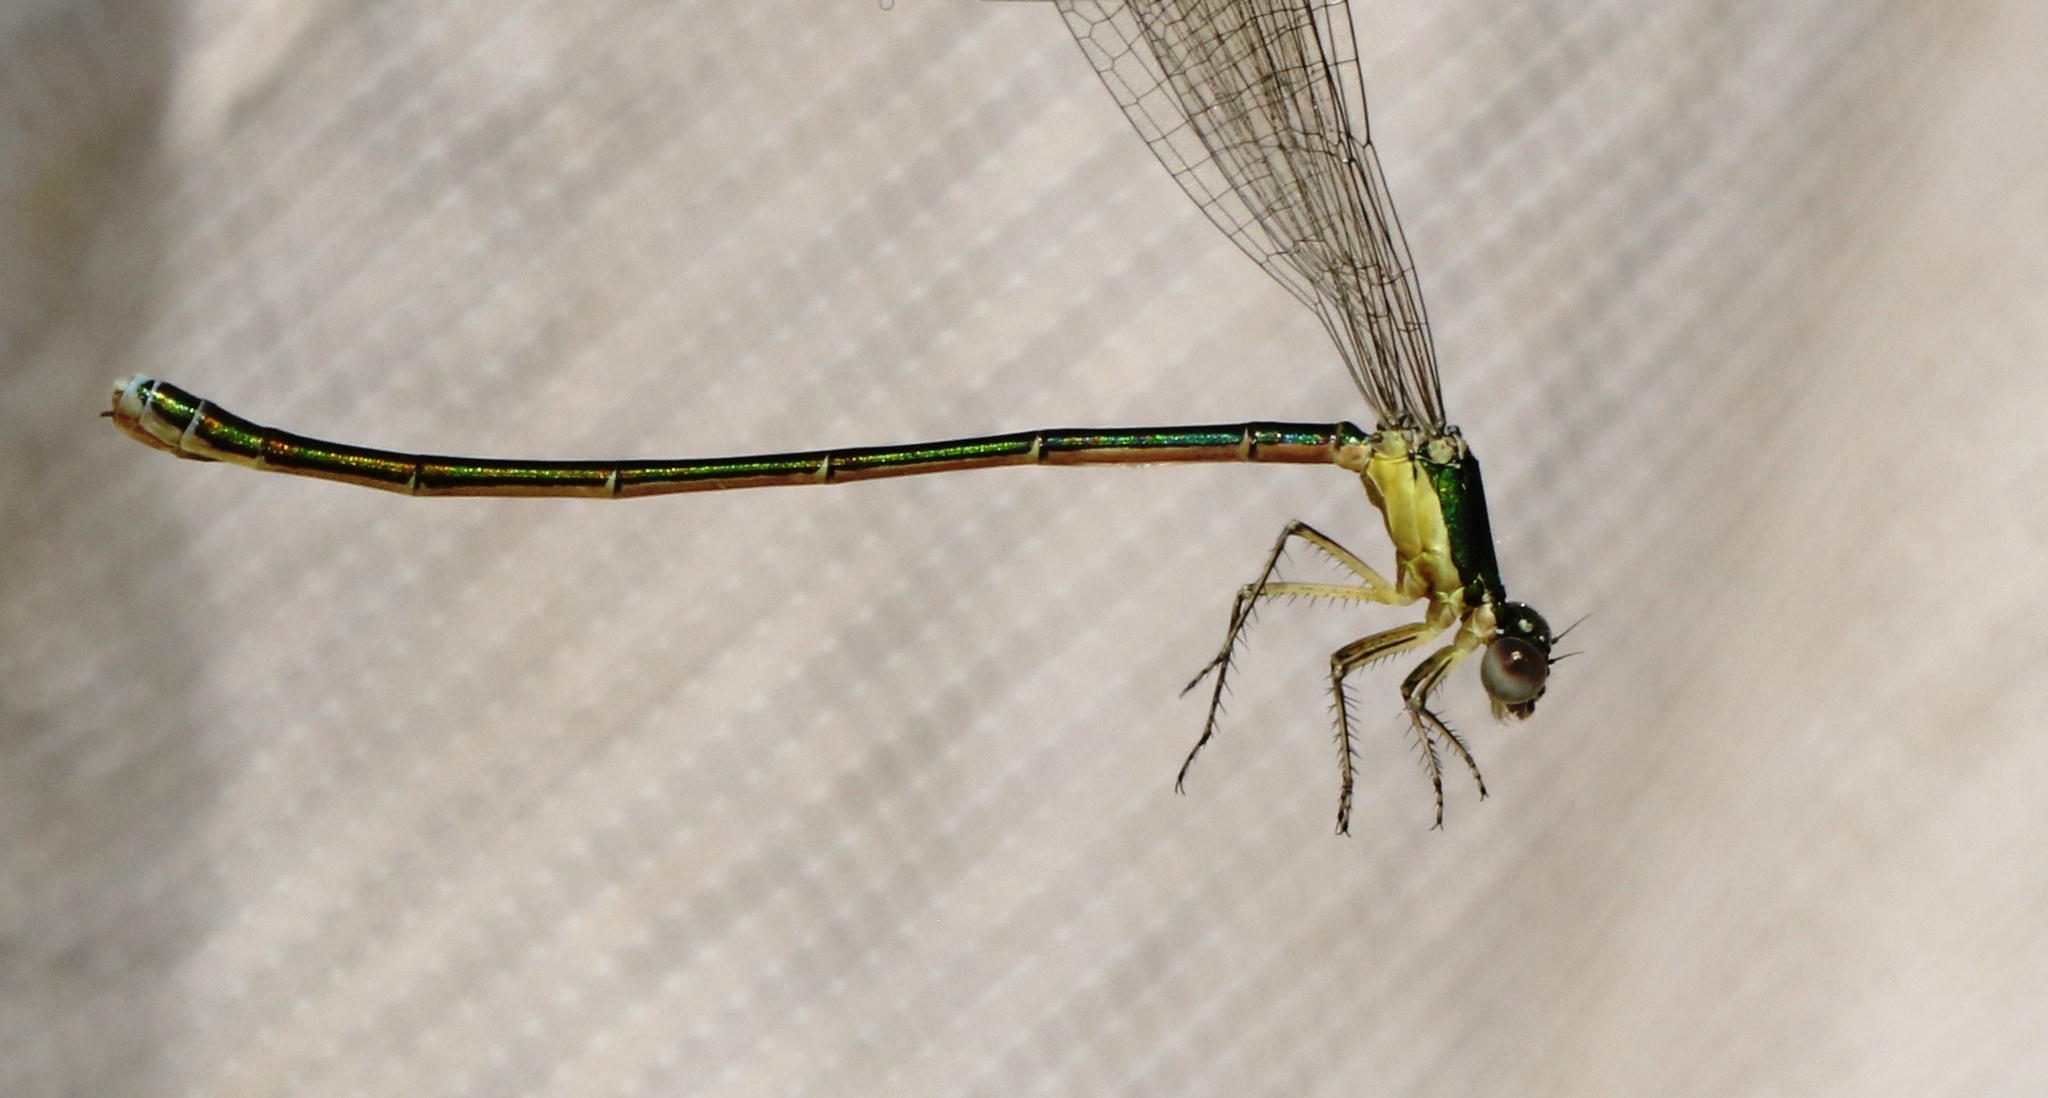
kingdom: Animalia
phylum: Arthropoda
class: Insecta
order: Odonata
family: Coenagrionidae
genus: Nehalennia
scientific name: Nehalennia irene
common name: Sedge sprite
